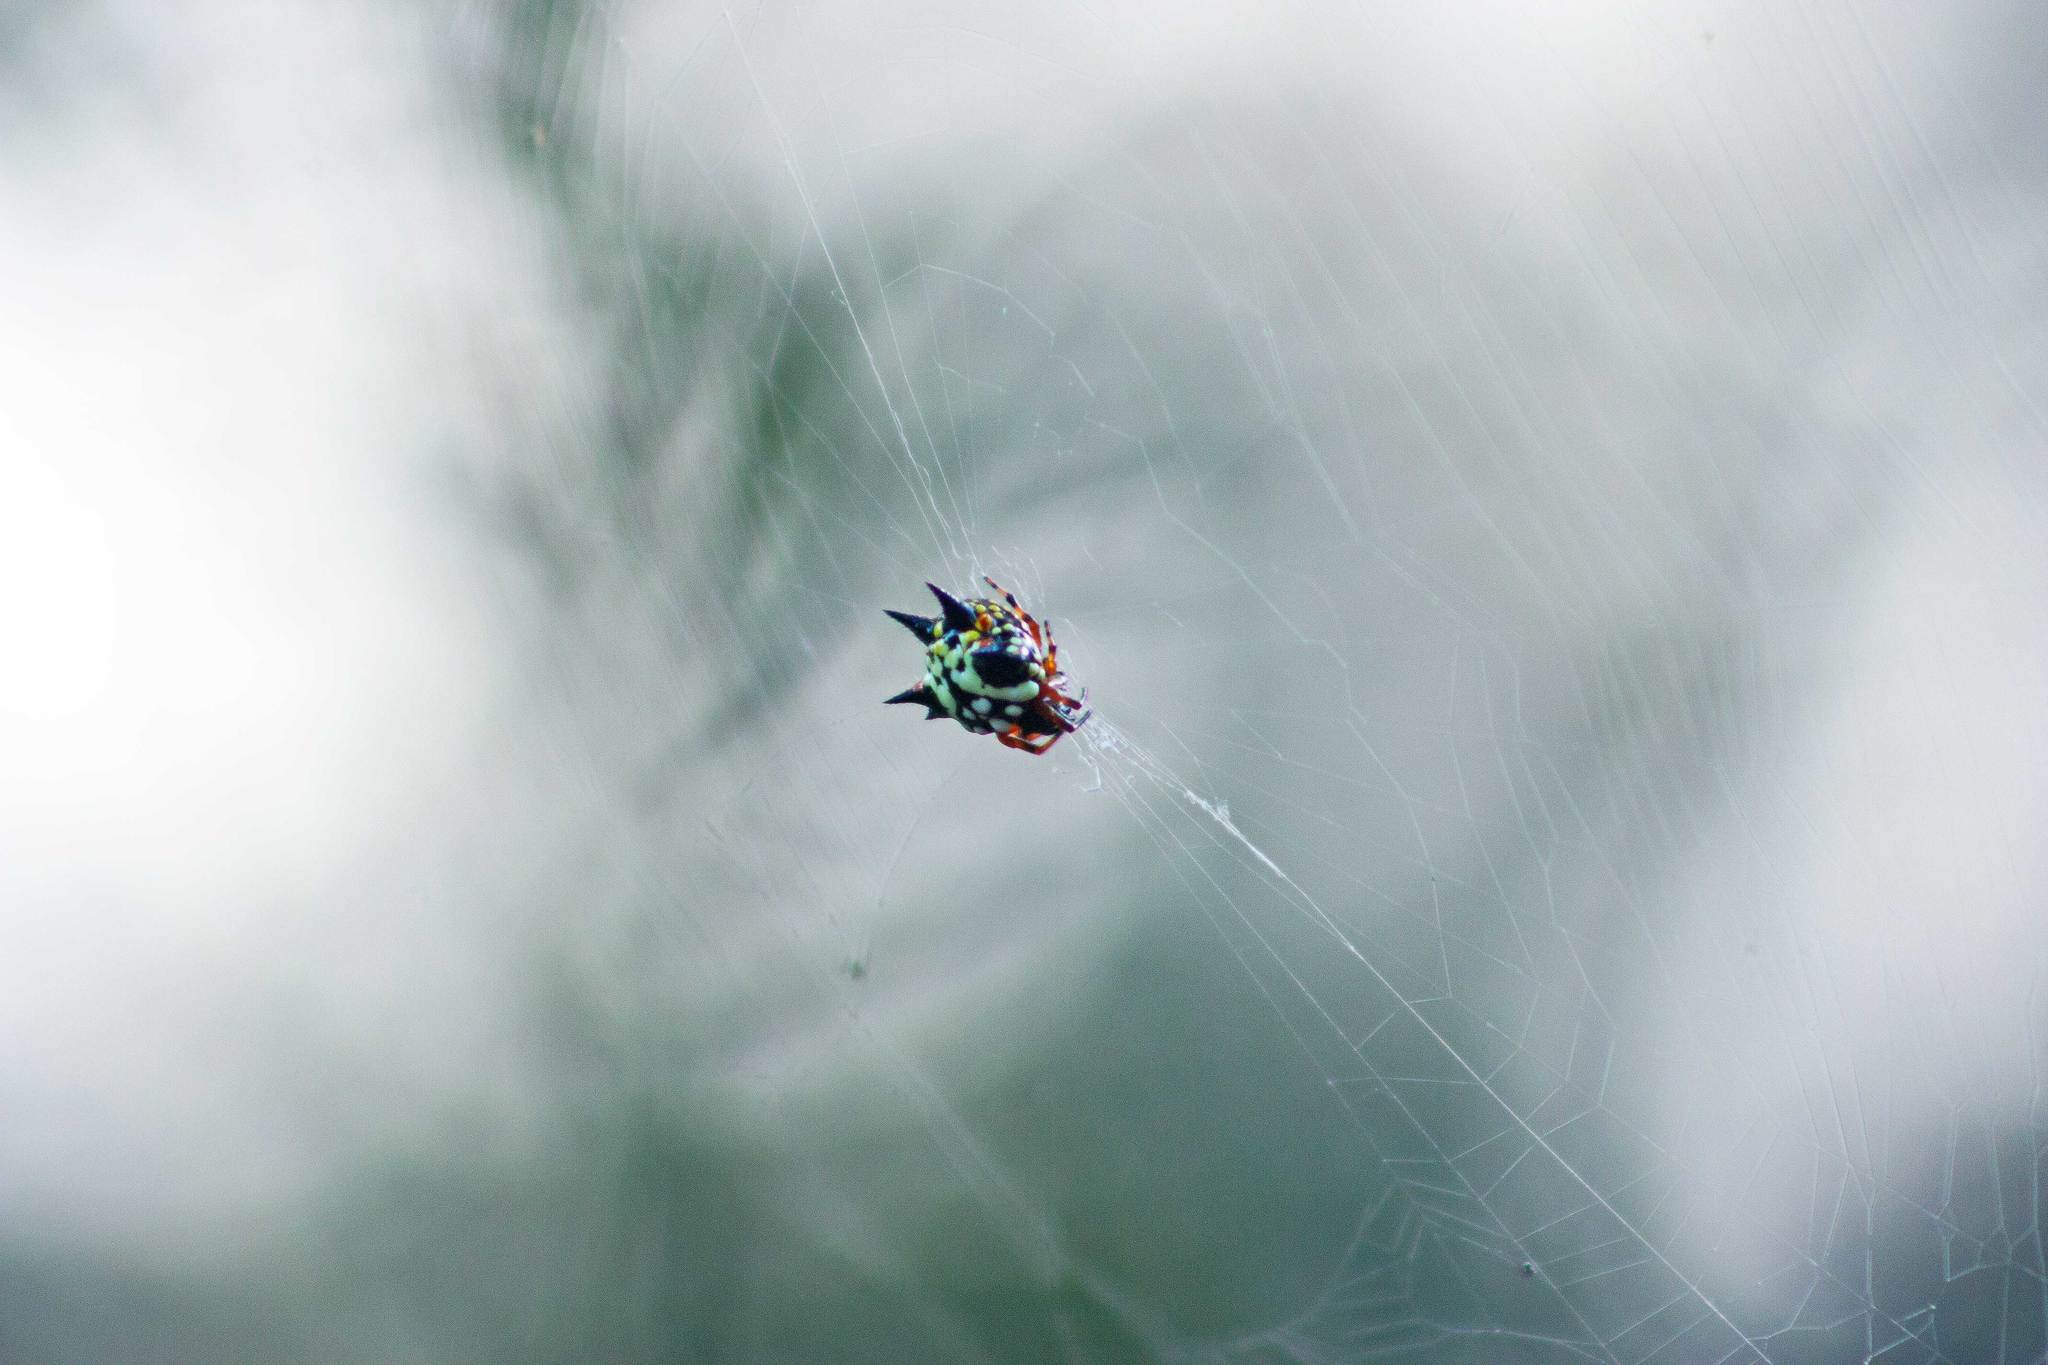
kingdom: Animalia
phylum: Arthropoda
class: Arachnida
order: Araneae
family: Araneidae
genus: Austracantha
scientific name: Austracantha minax
